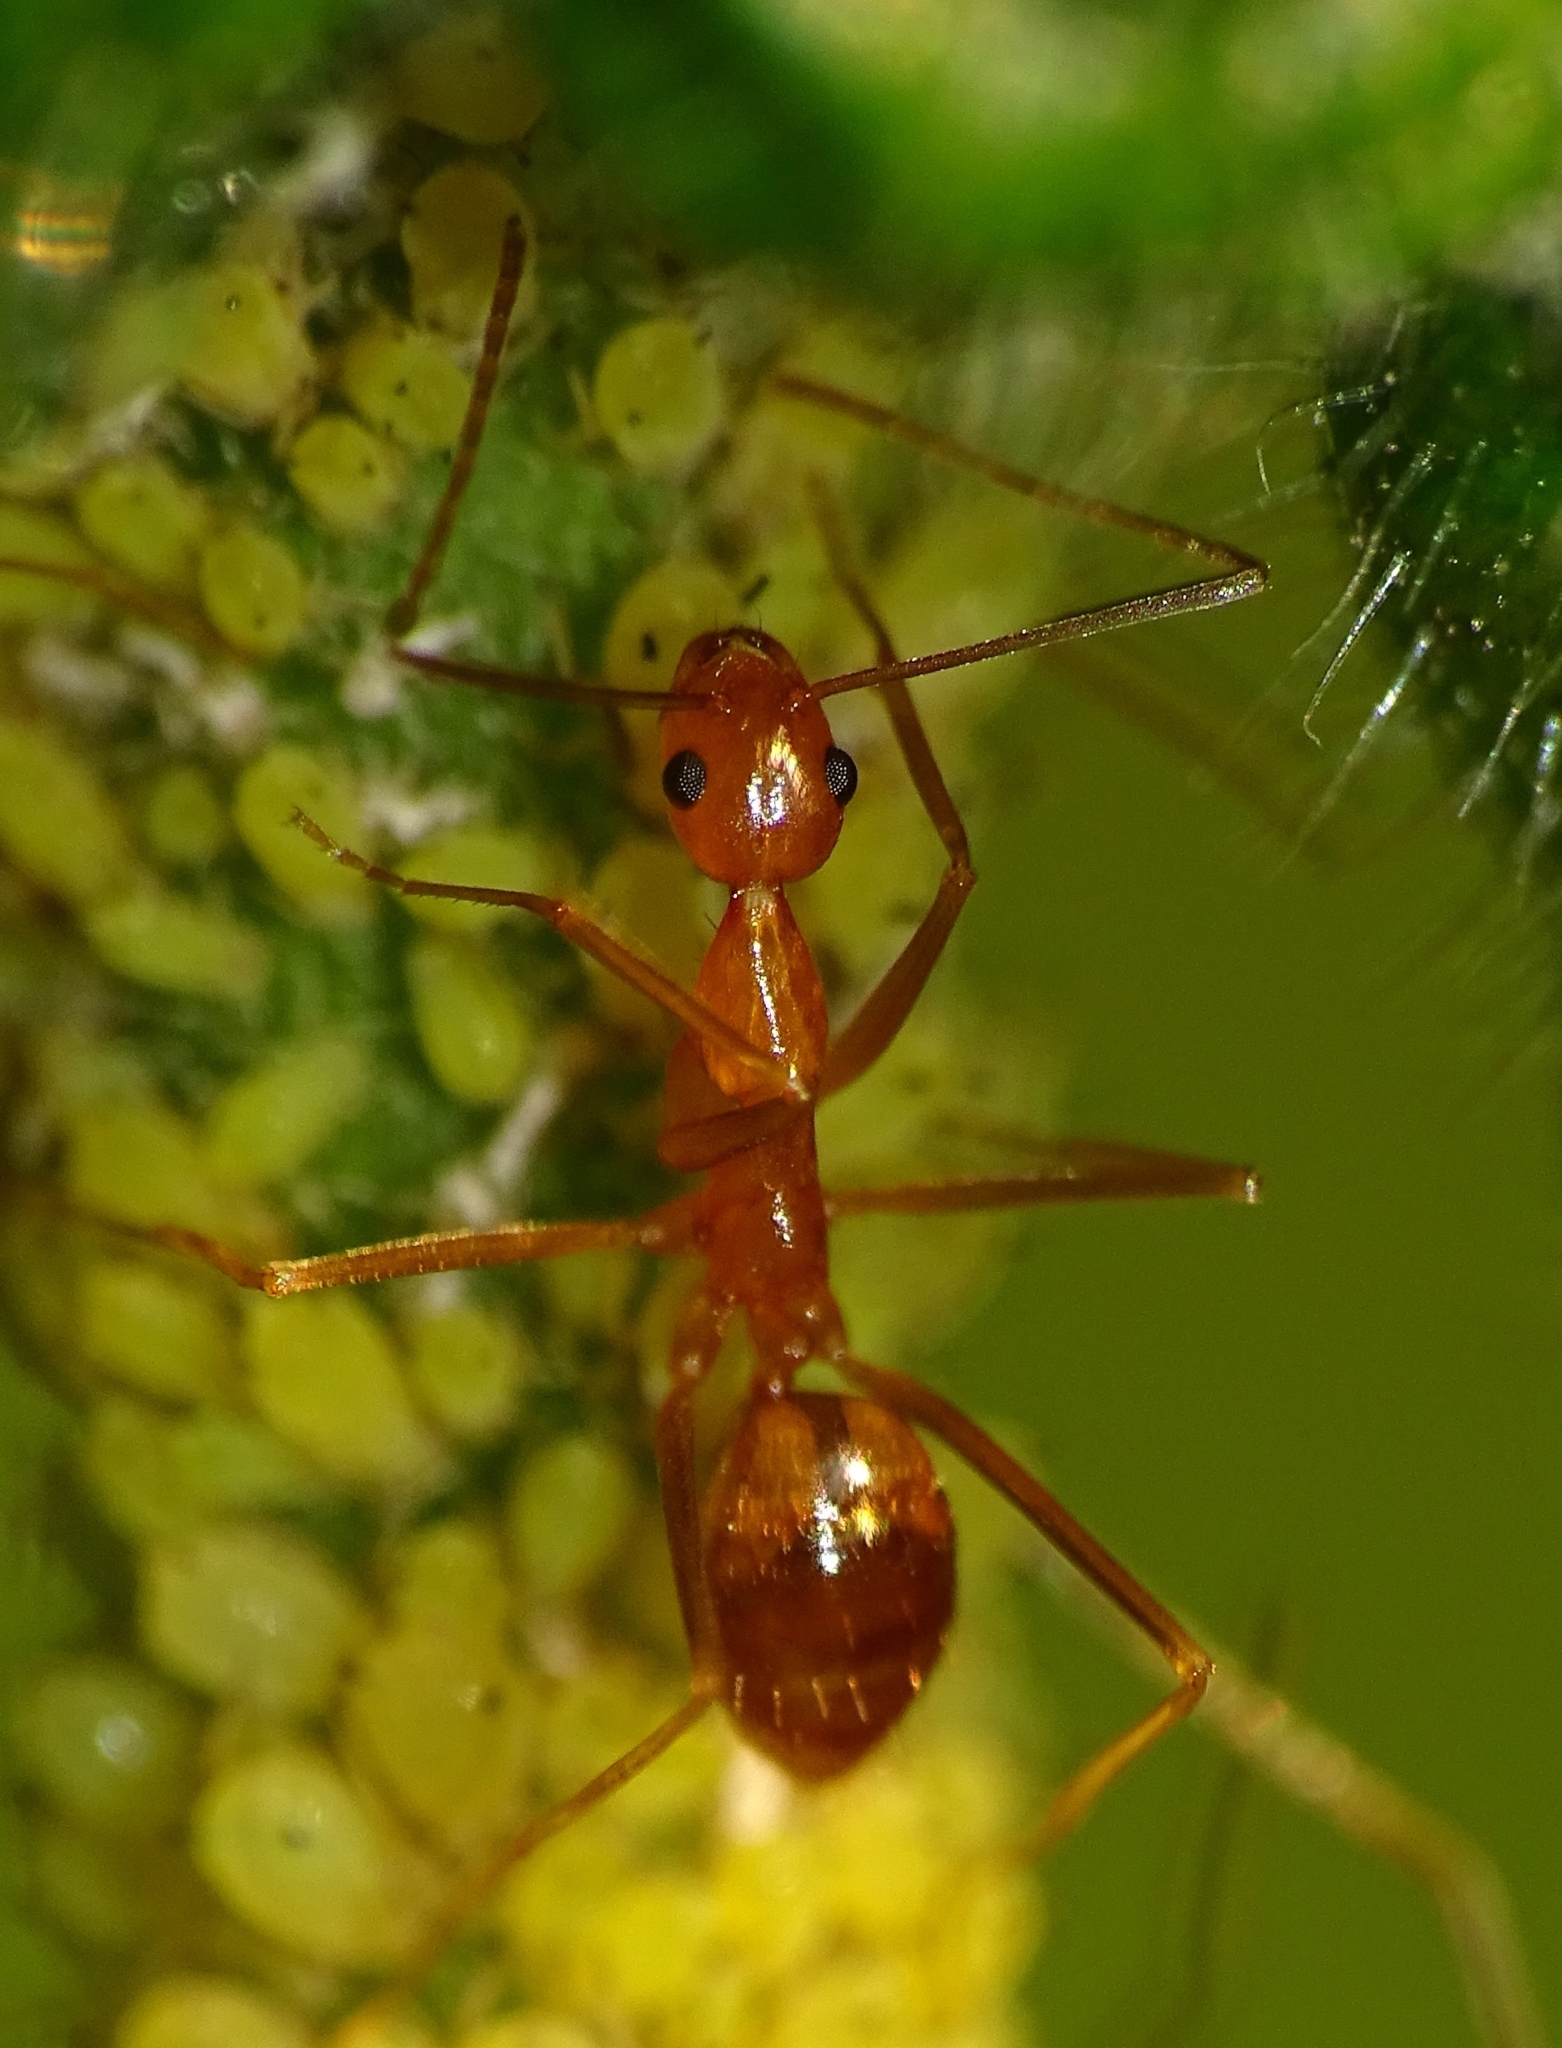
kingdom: Animalia
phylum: Arthropoda
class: Insecta
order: Hymenoptera
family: Formicidae
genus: Anoplolepis
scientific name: Anoplolepis gracilipes
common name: Ant
